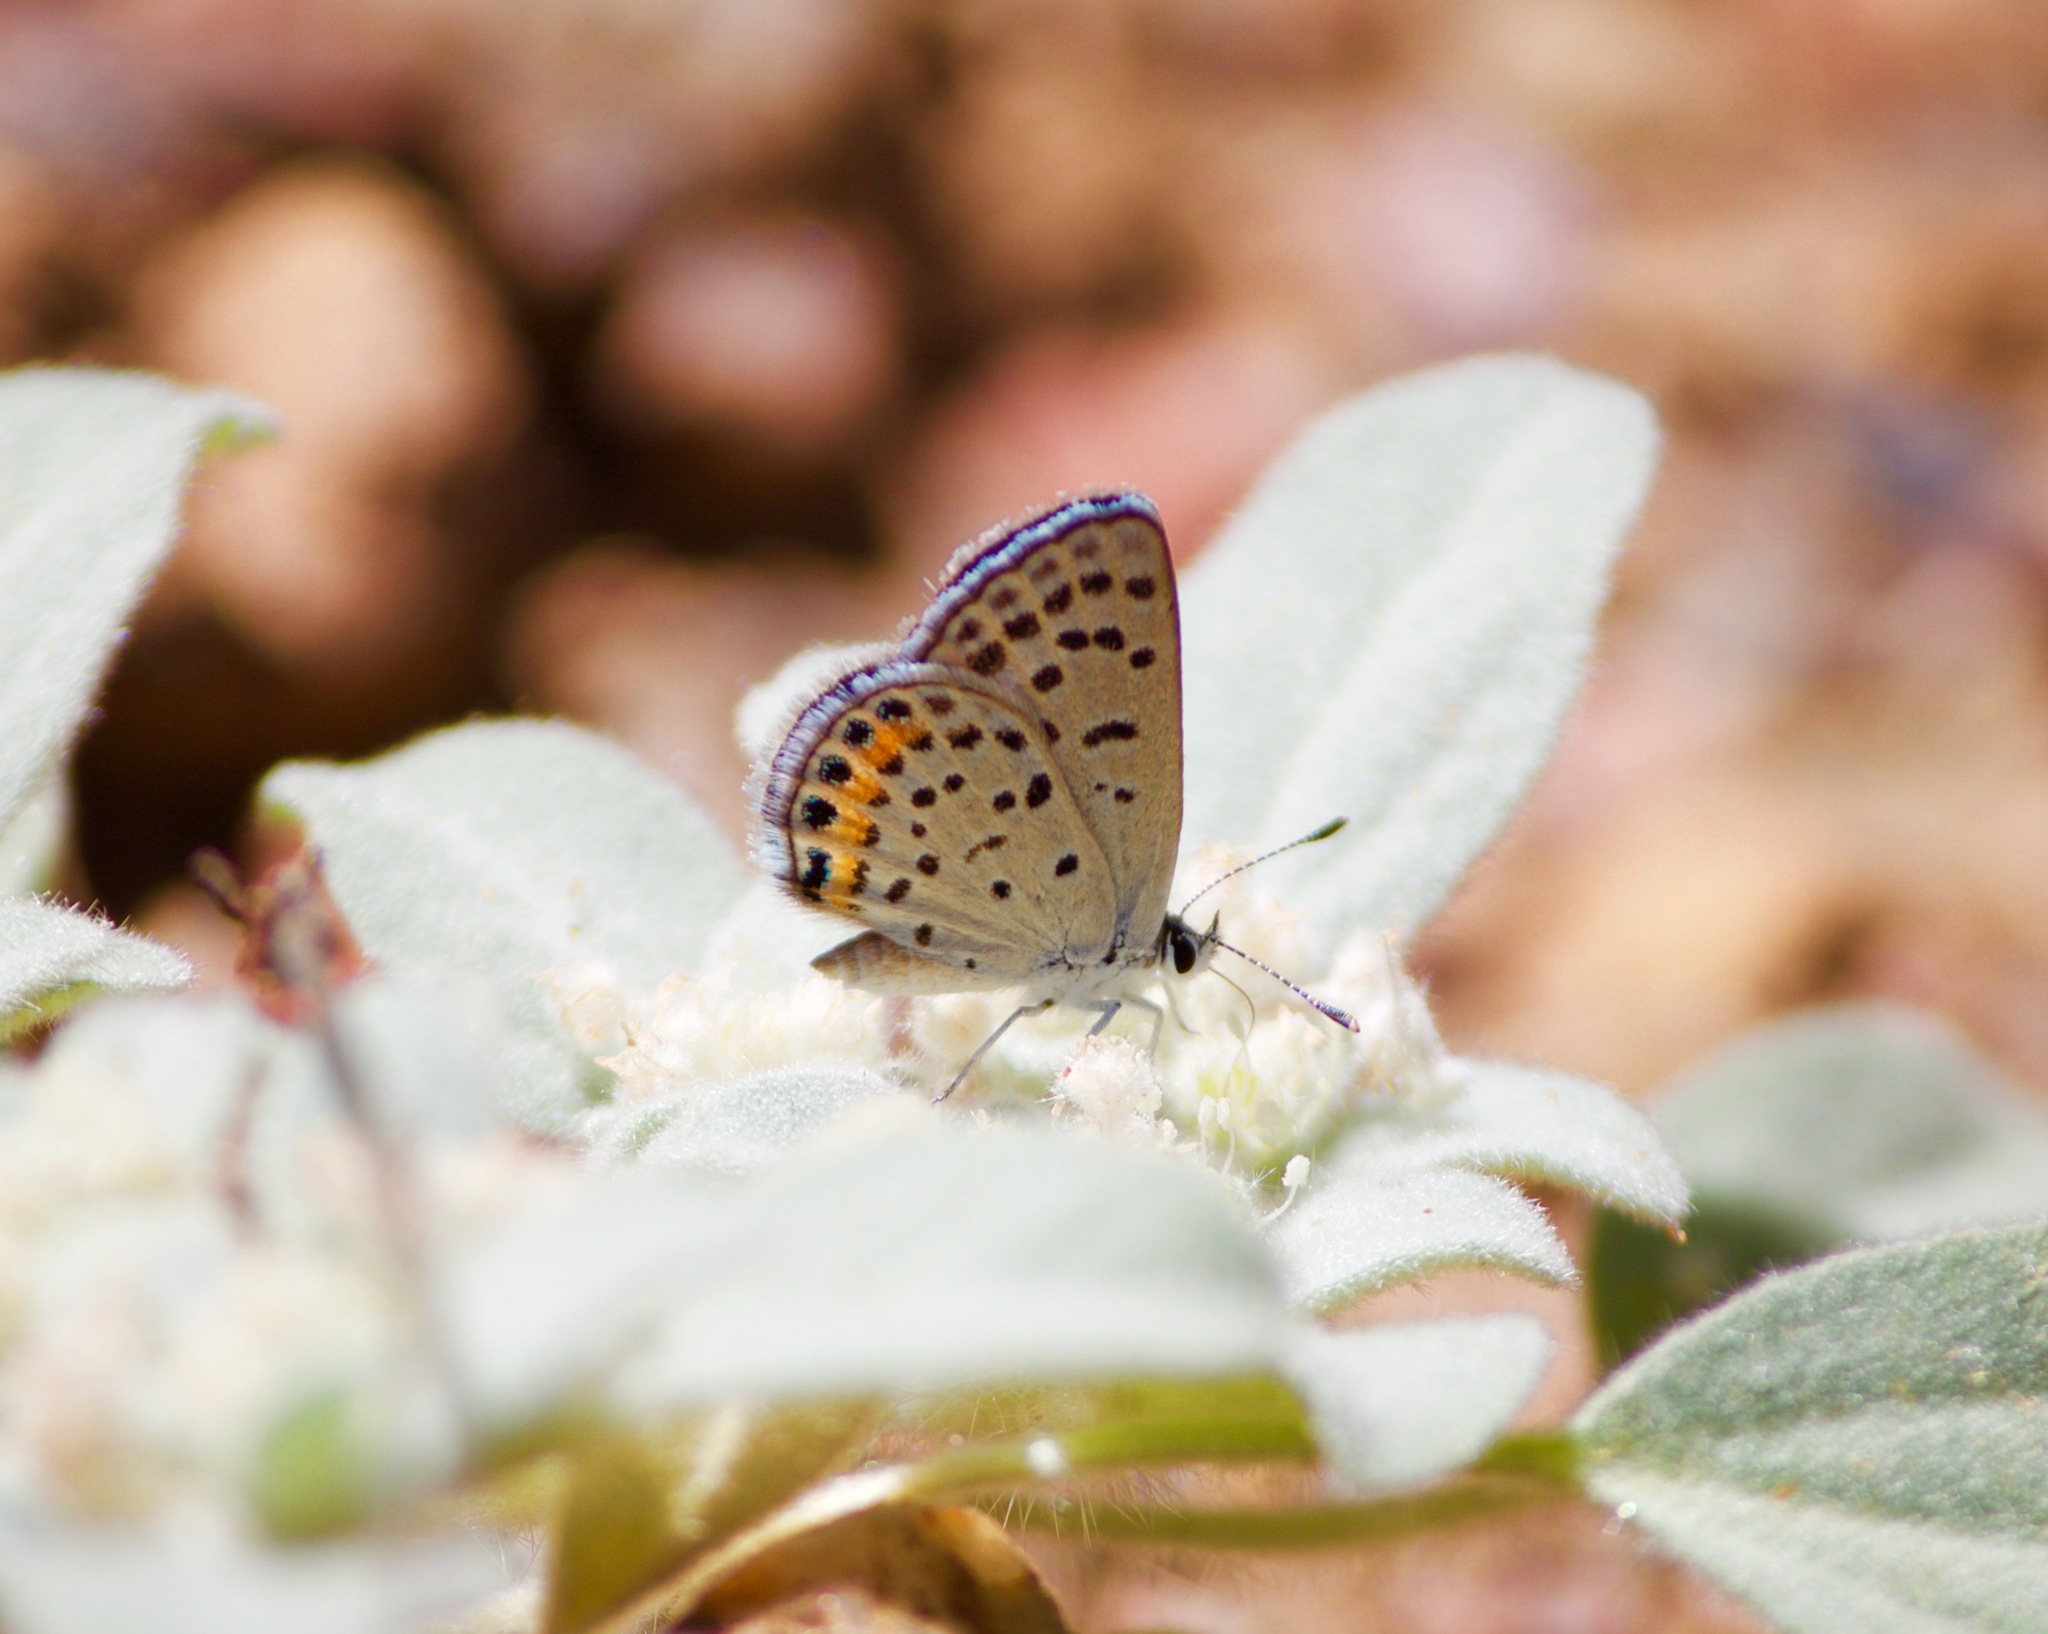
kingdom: Animalia
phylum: Arthropoda
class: Insecta
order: Lepidoptera
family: Lycaenidae
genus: Icaricia
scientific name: Icaricia acmon
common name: Acmon blue
